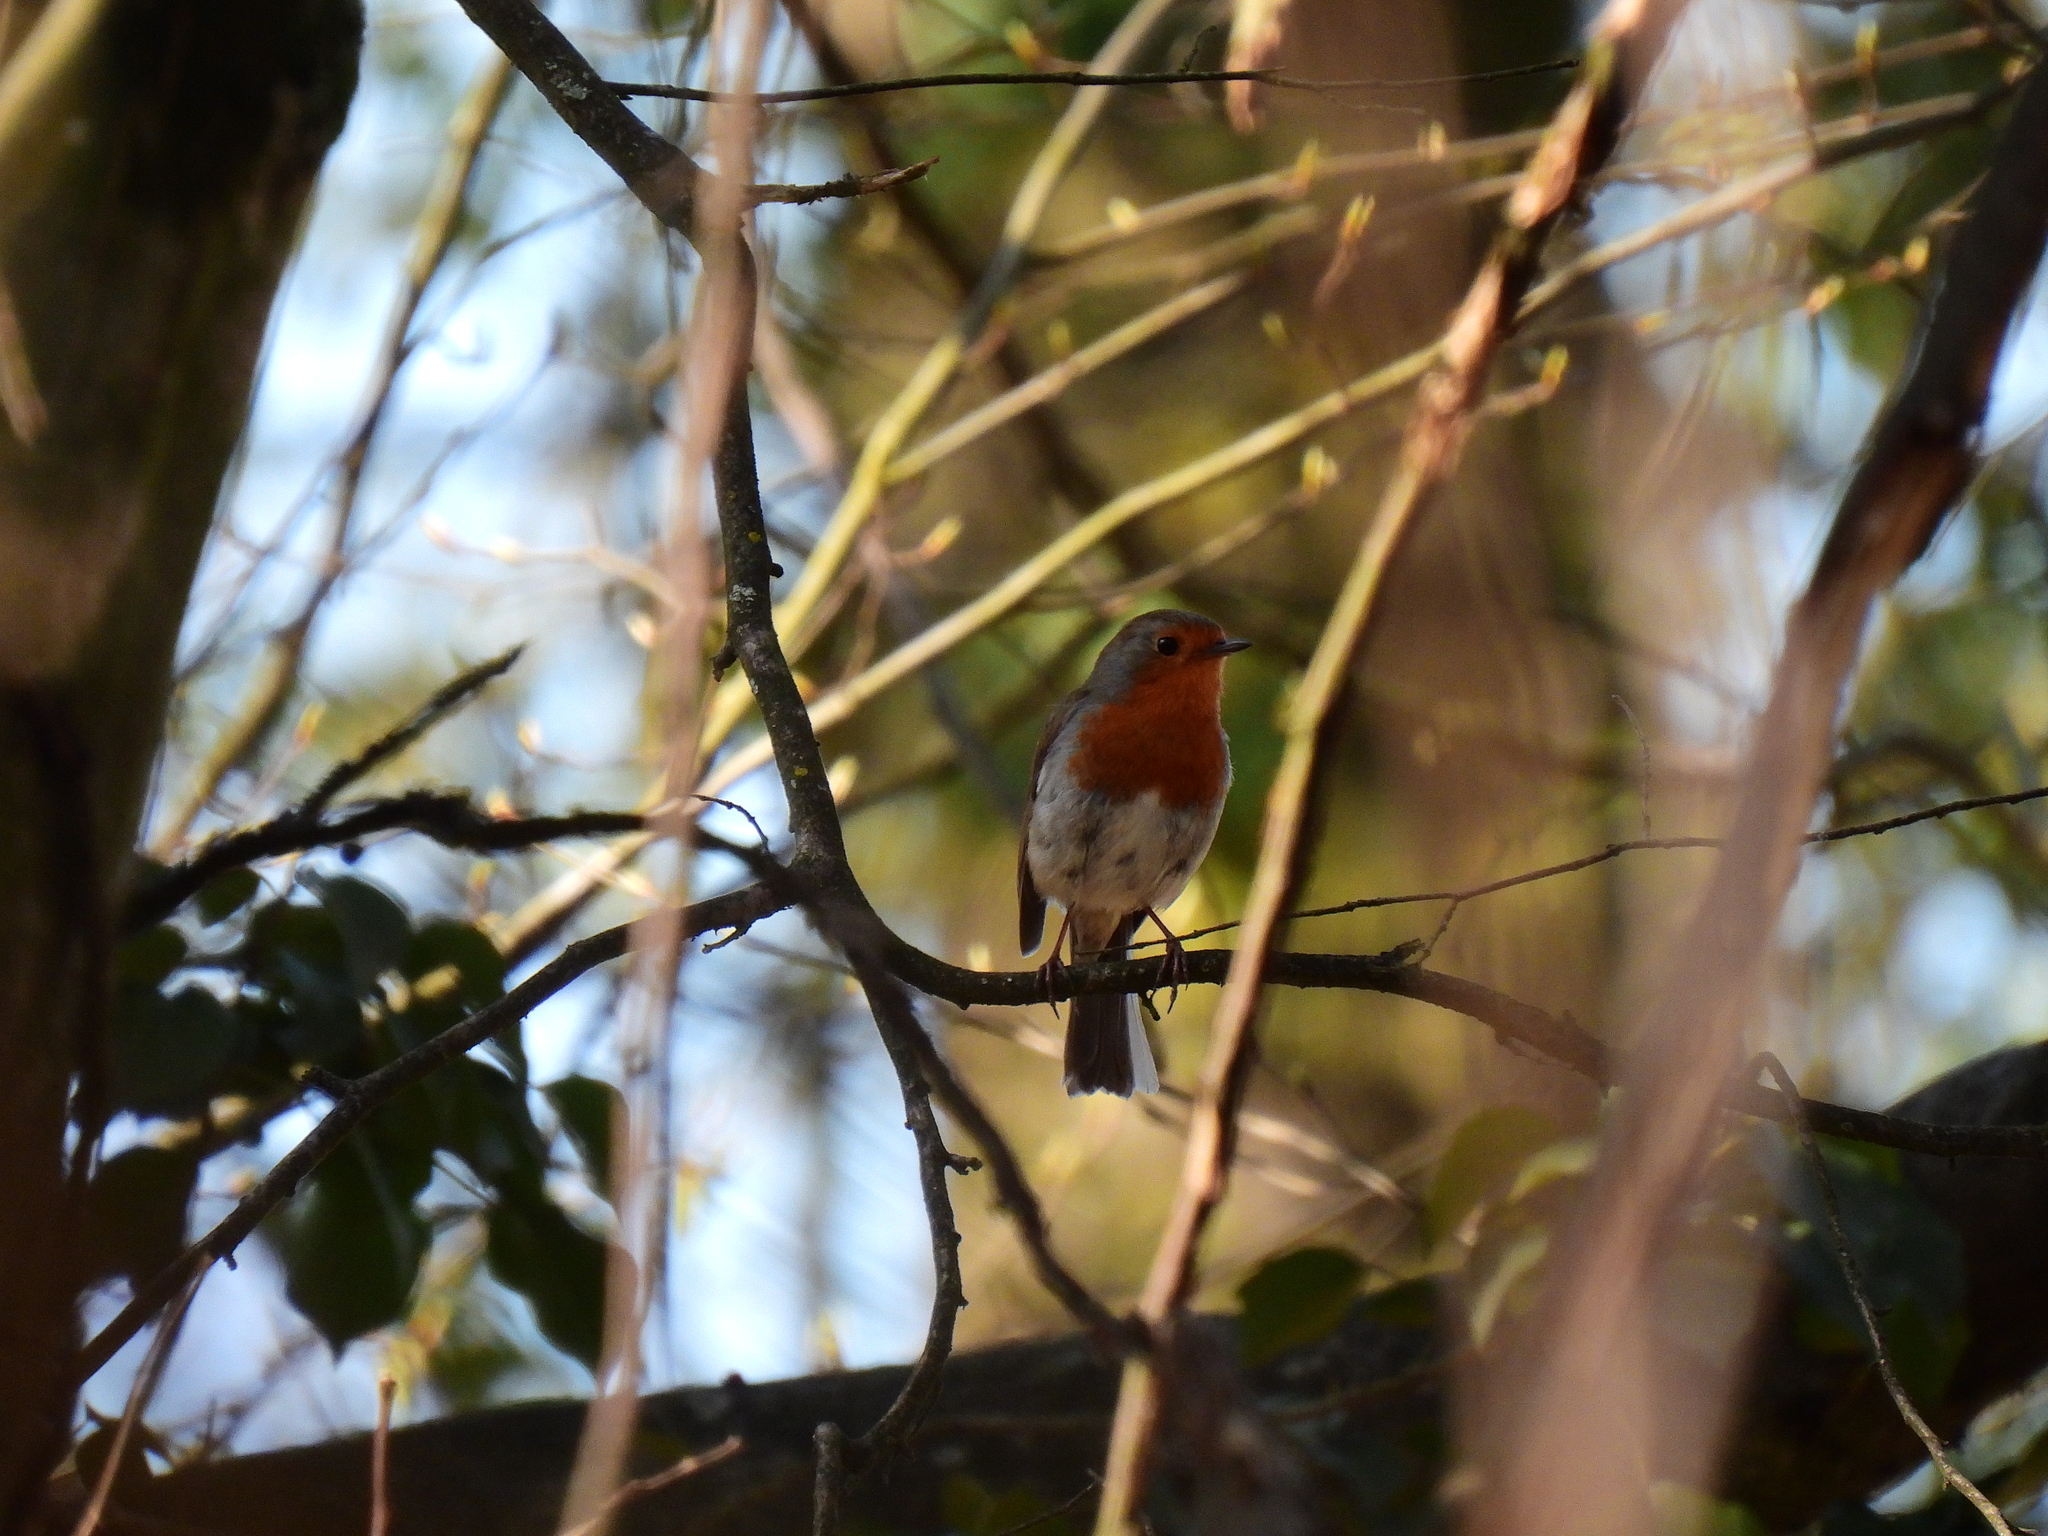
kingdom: Animalia
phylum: Chordata
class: Aves
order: Passeriformes
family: Muscicapidae
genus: Erithacus
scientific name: Erithacus rubecula
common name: European robin
